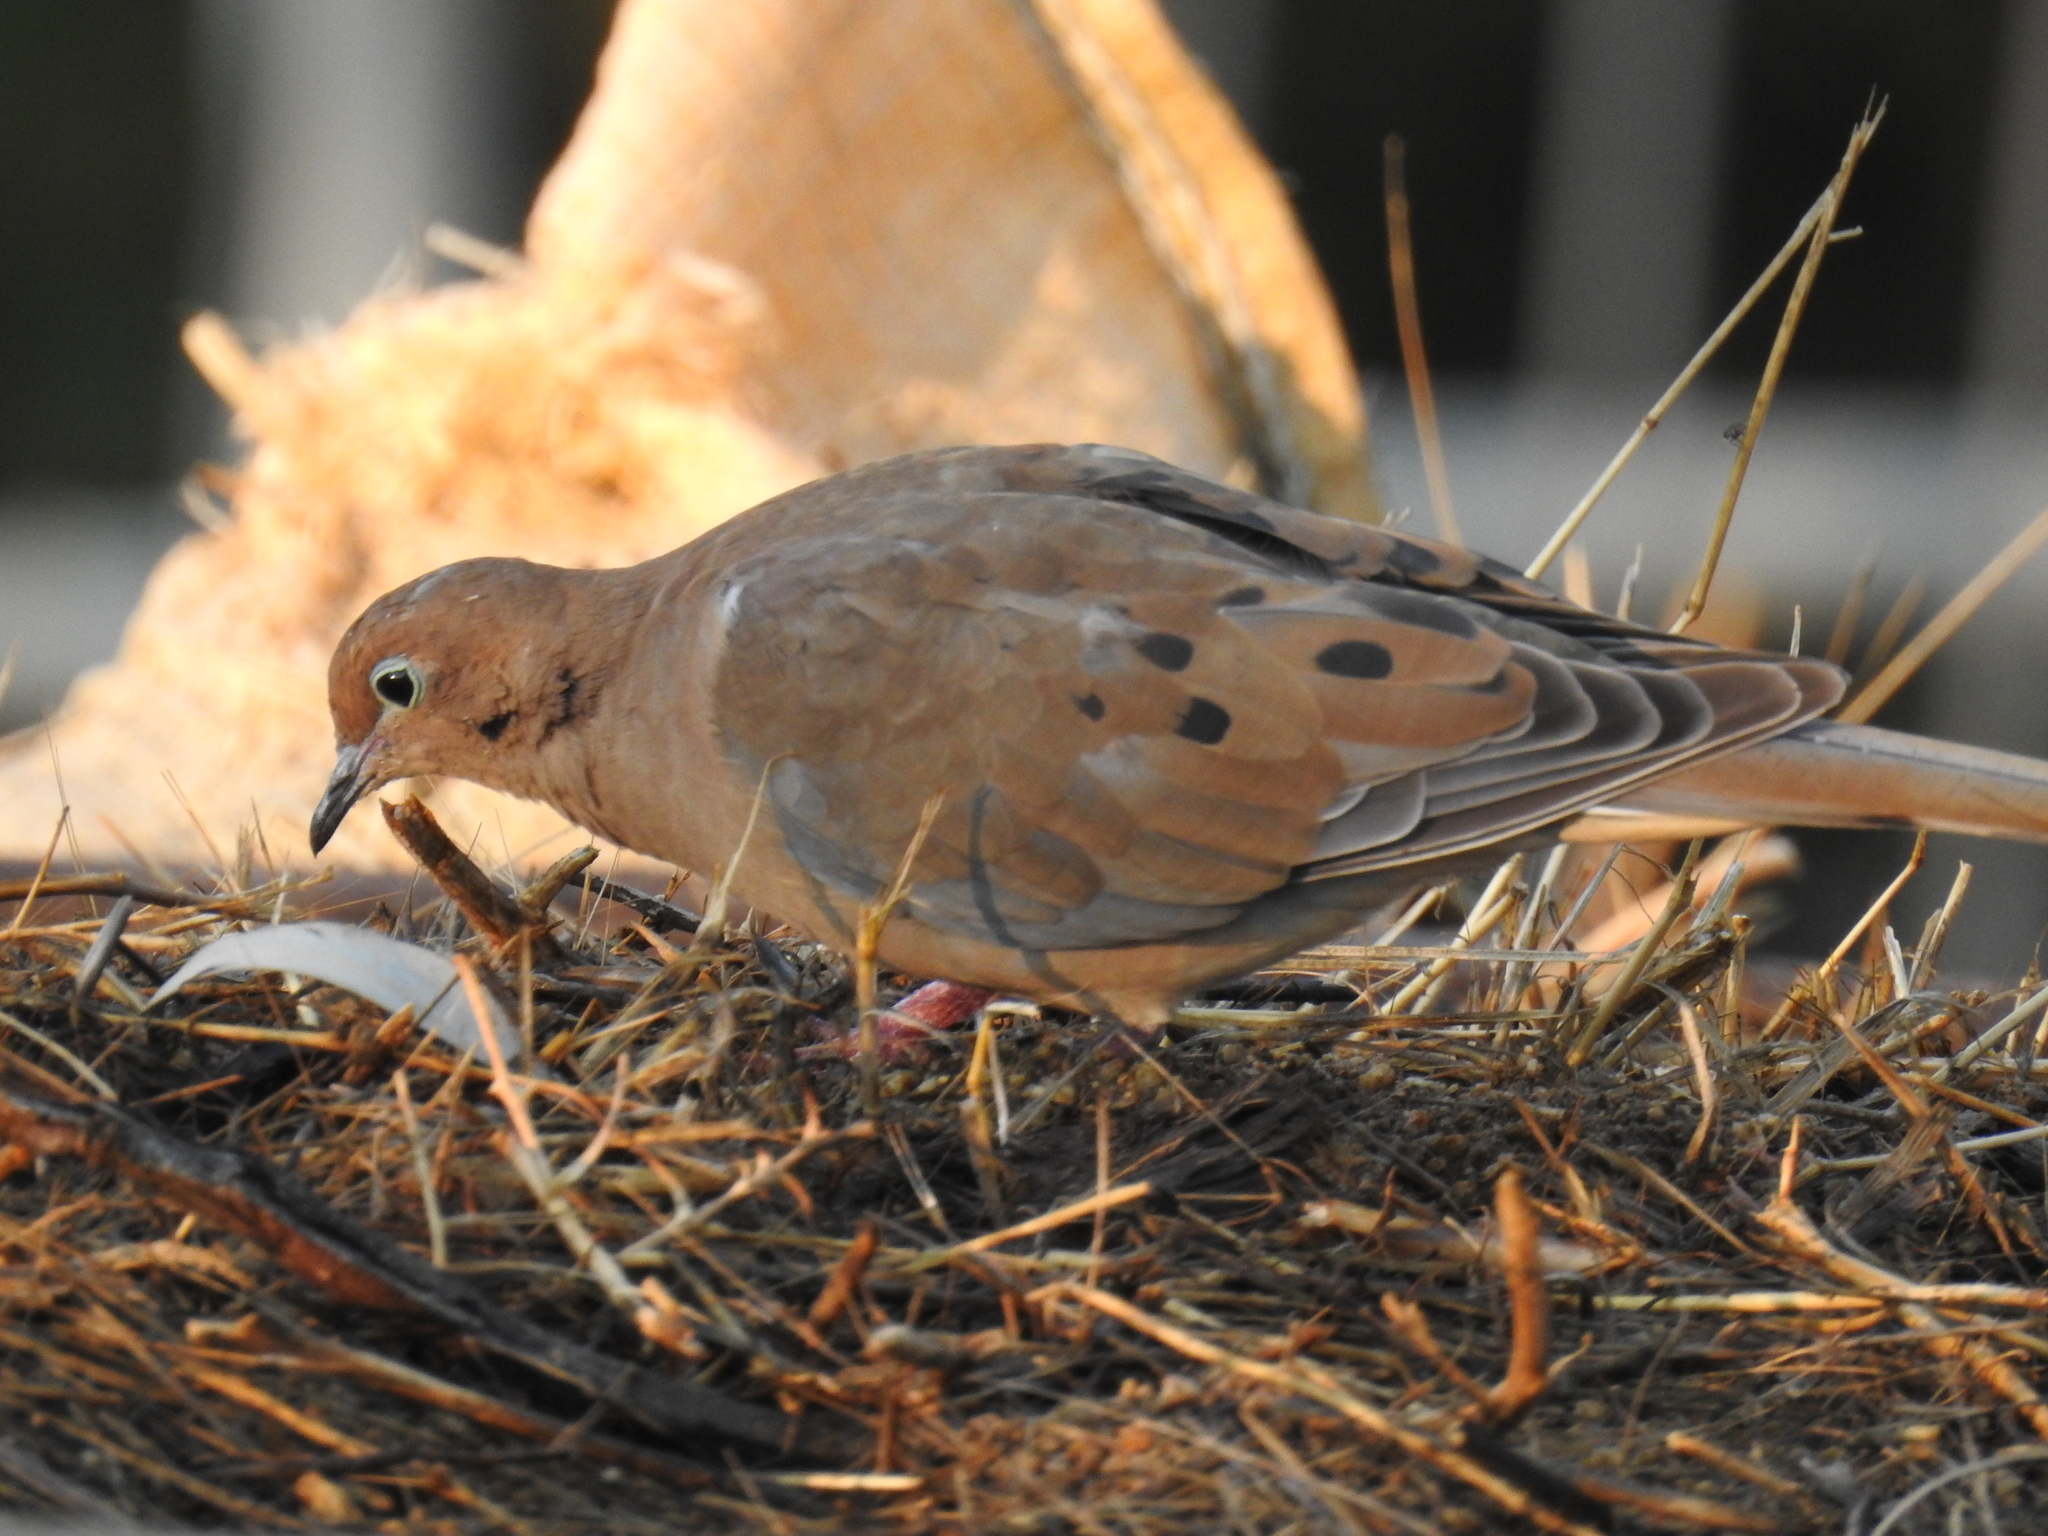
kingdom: Animalia
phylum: Chordata
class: Aves
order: Columbiformes
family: Columbidae
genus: Zenaida
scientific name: Zenaida macroura
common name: Mourning dove
